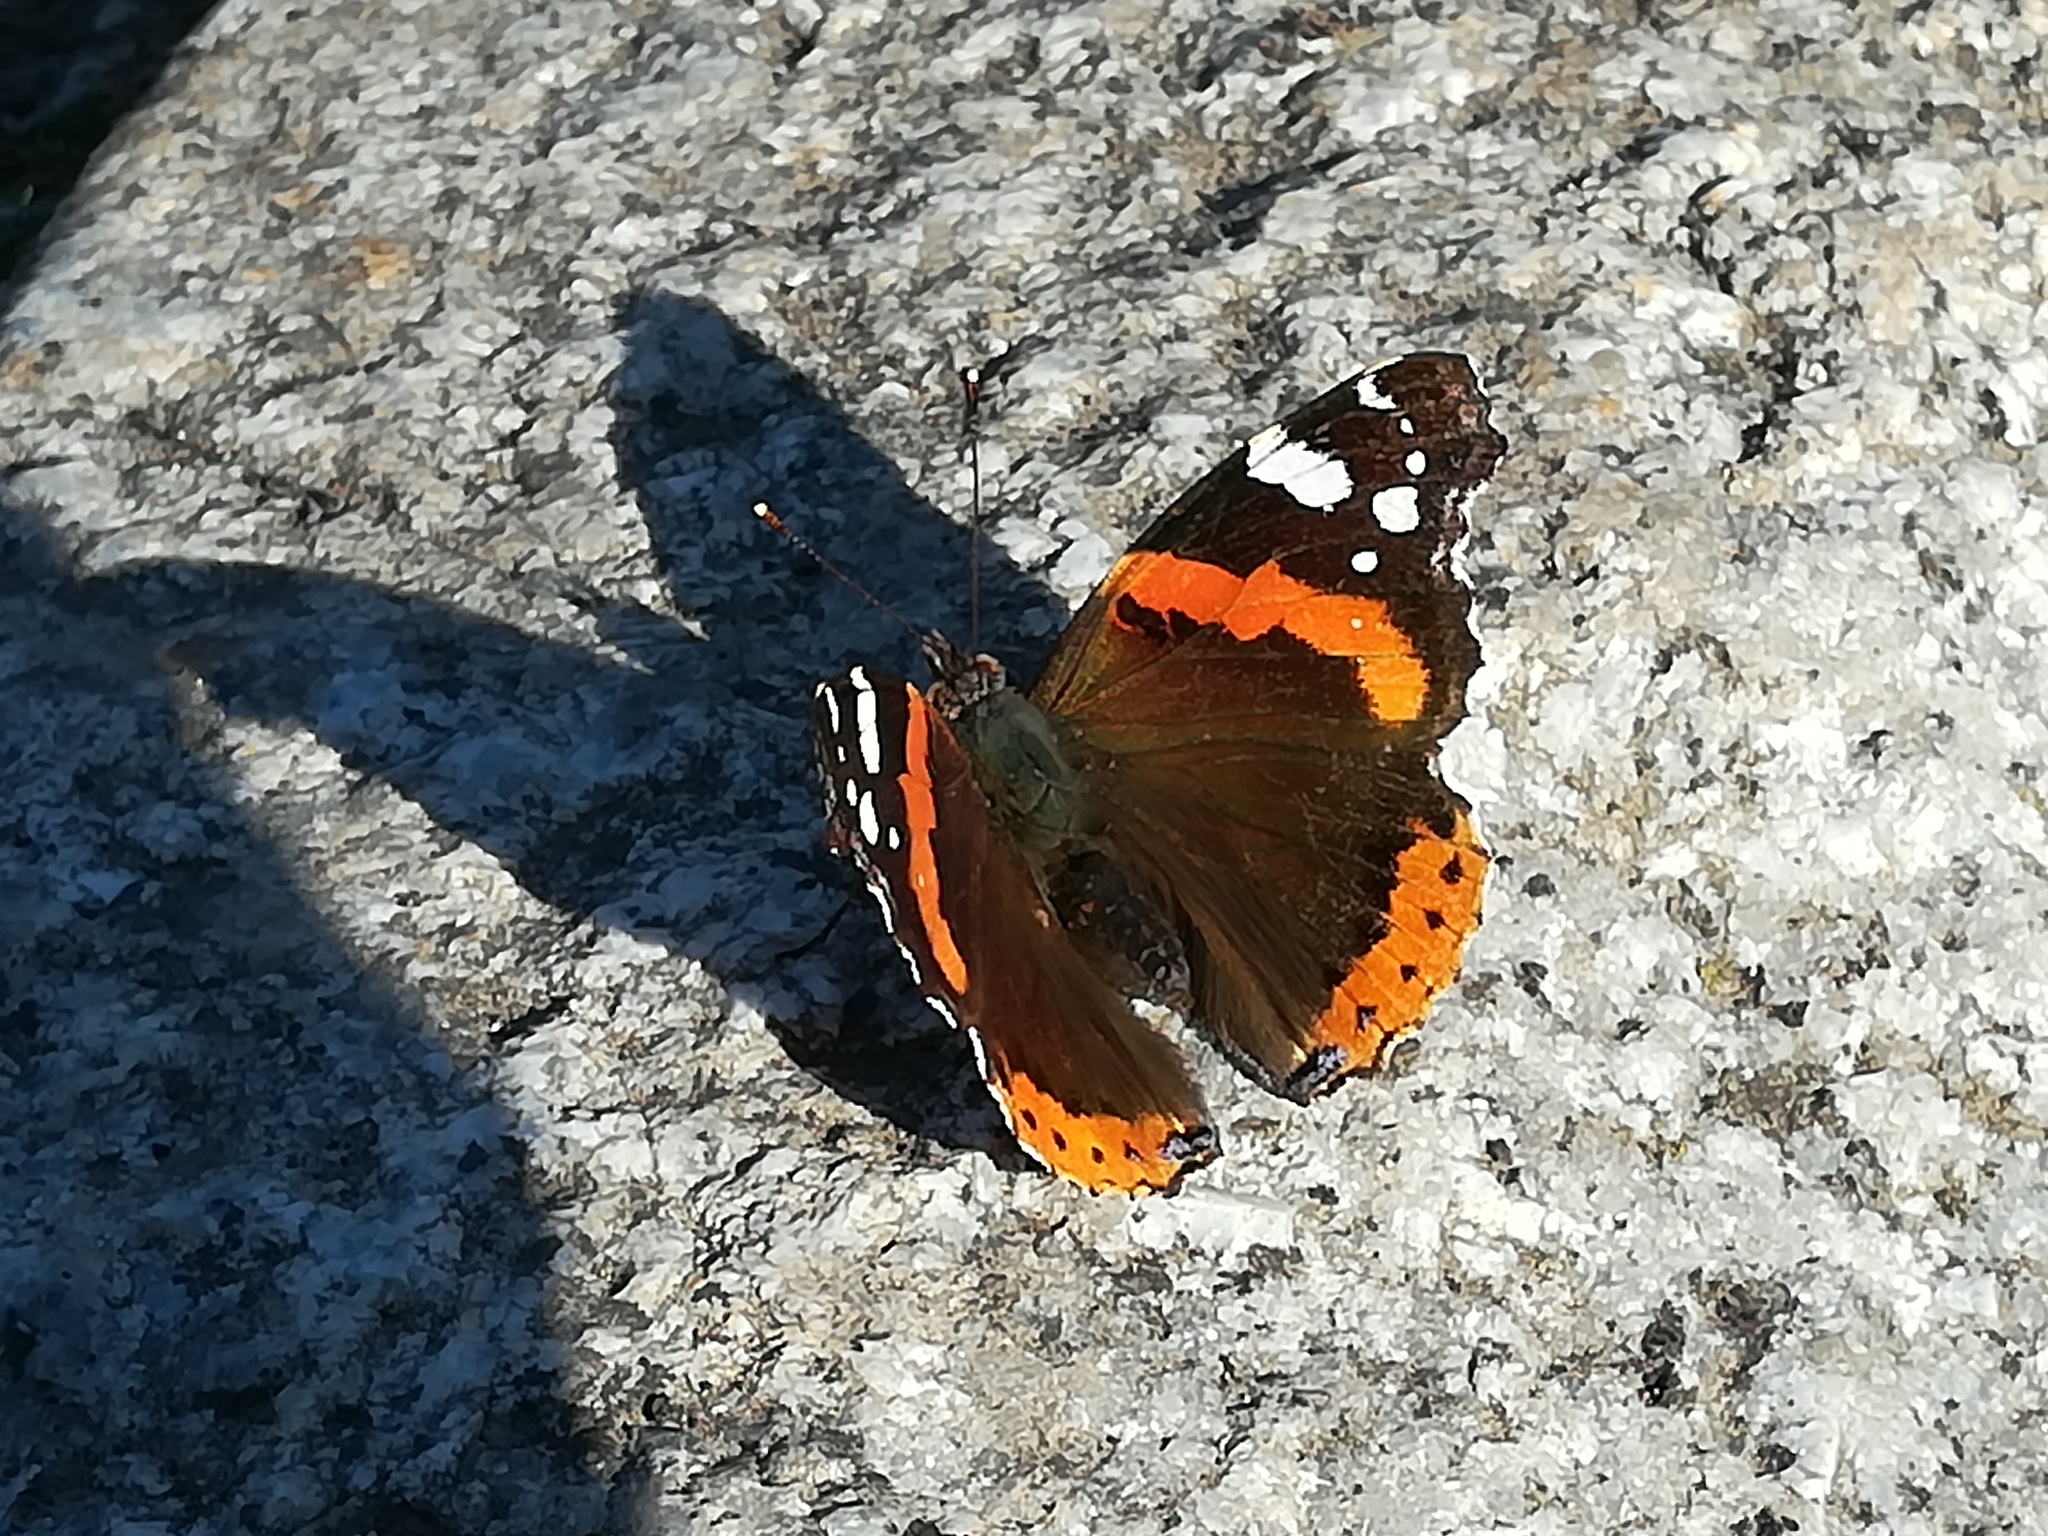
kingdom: Animalia
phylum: Arthropoda
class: Insecta
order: Lepidoptera
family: Nymphalidae
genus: Vanessa
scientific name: Vanessa atalanta
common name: Red admiral
